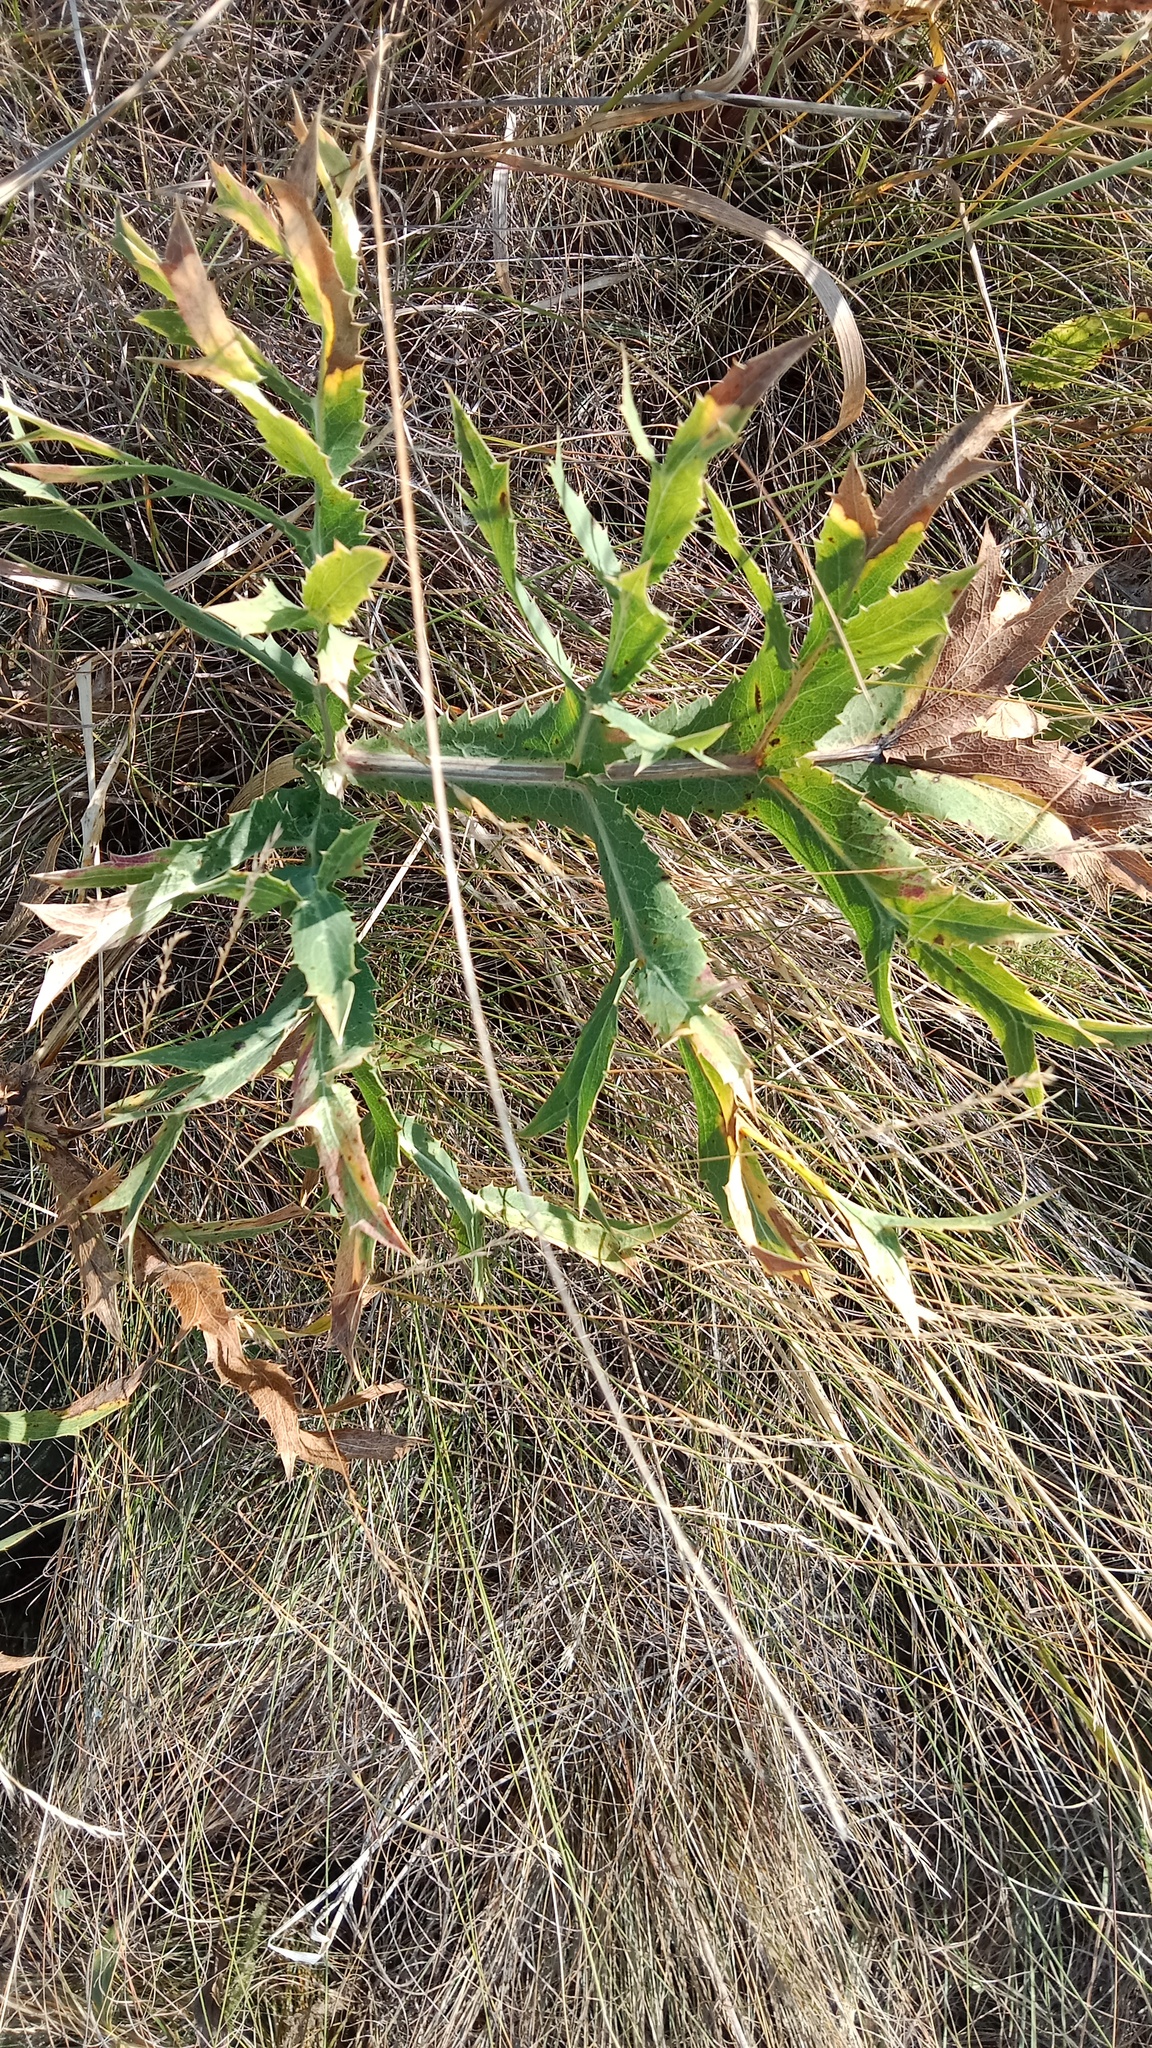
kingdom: Plantae
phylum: Tracheophyta
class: Magnoliopsida
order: Apiales
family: Apiaceae
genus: Eryngium
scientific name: Eryngium campestre
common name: Field eryngo
